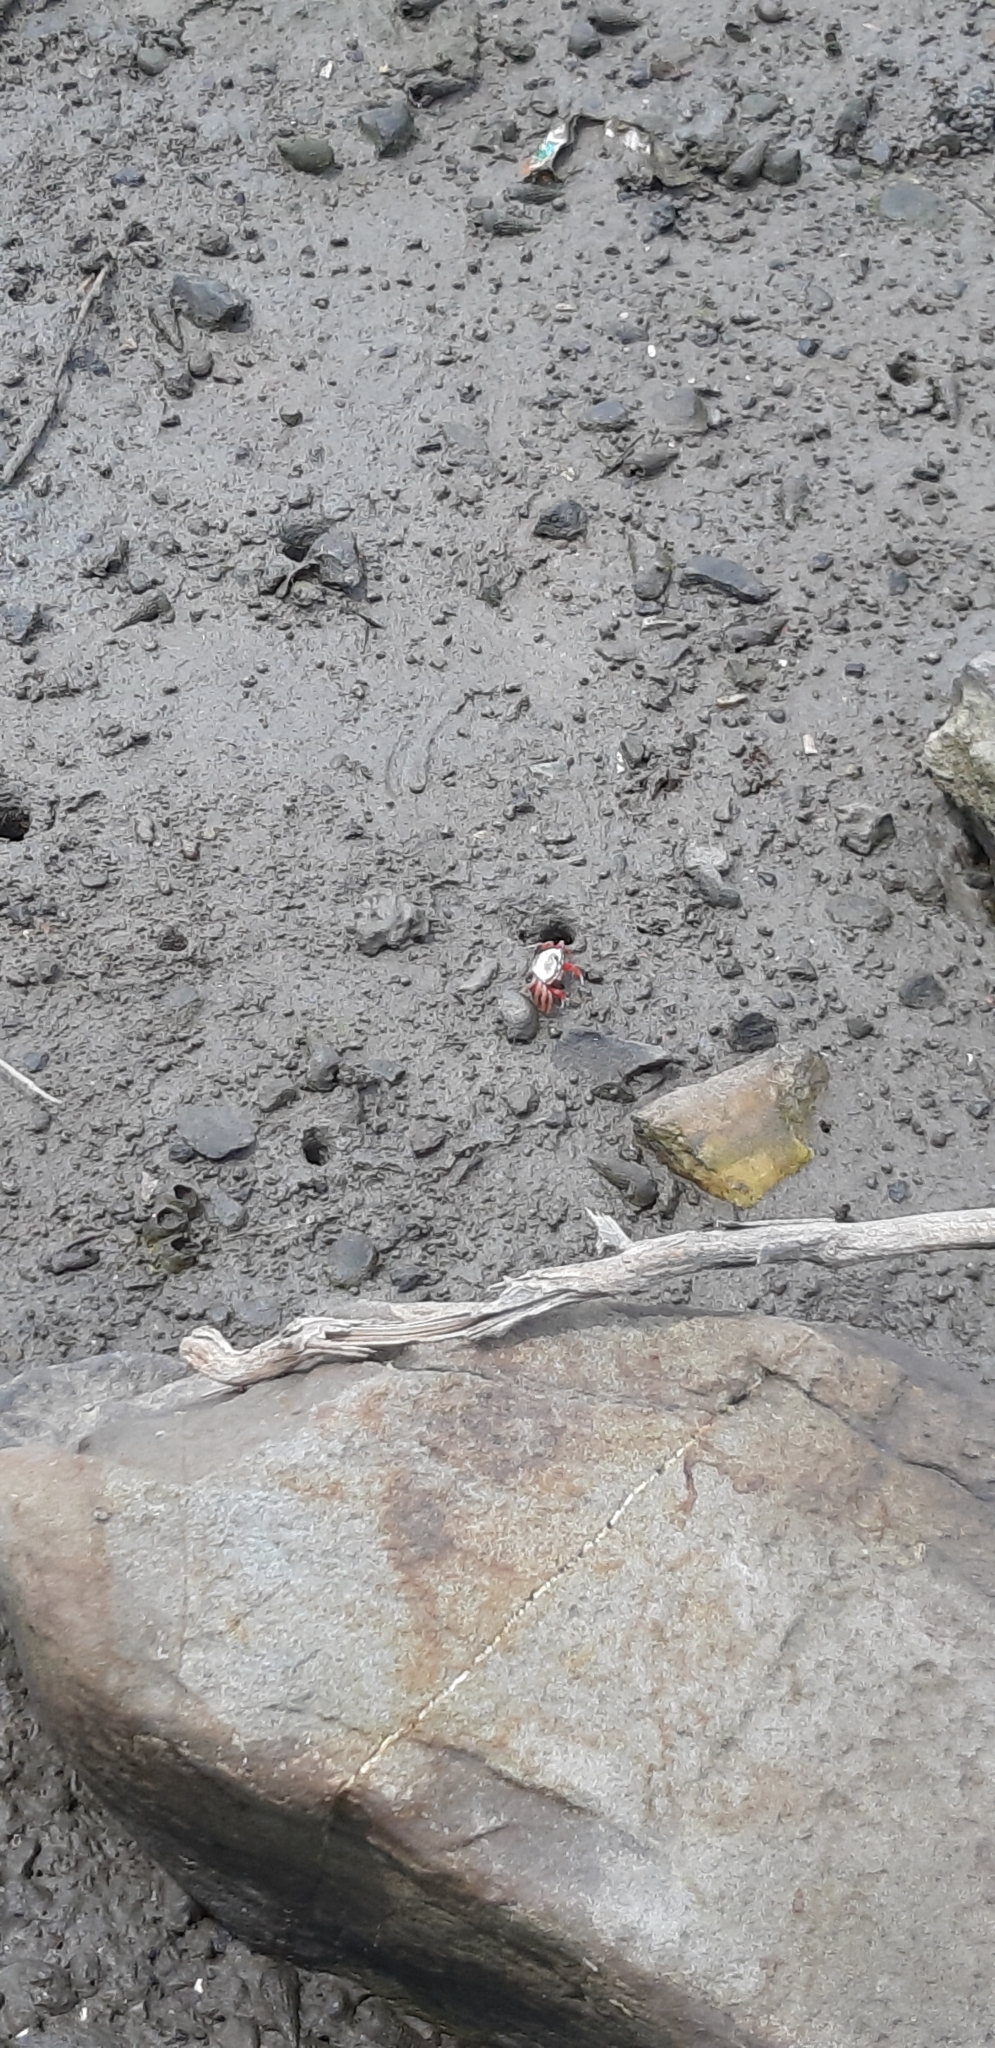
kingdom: Animalia
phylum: Arthropoda
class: Malacostraca
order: Decapoda
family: Ocypodidae
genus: Tubuca
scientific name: Tubuca arcuata
